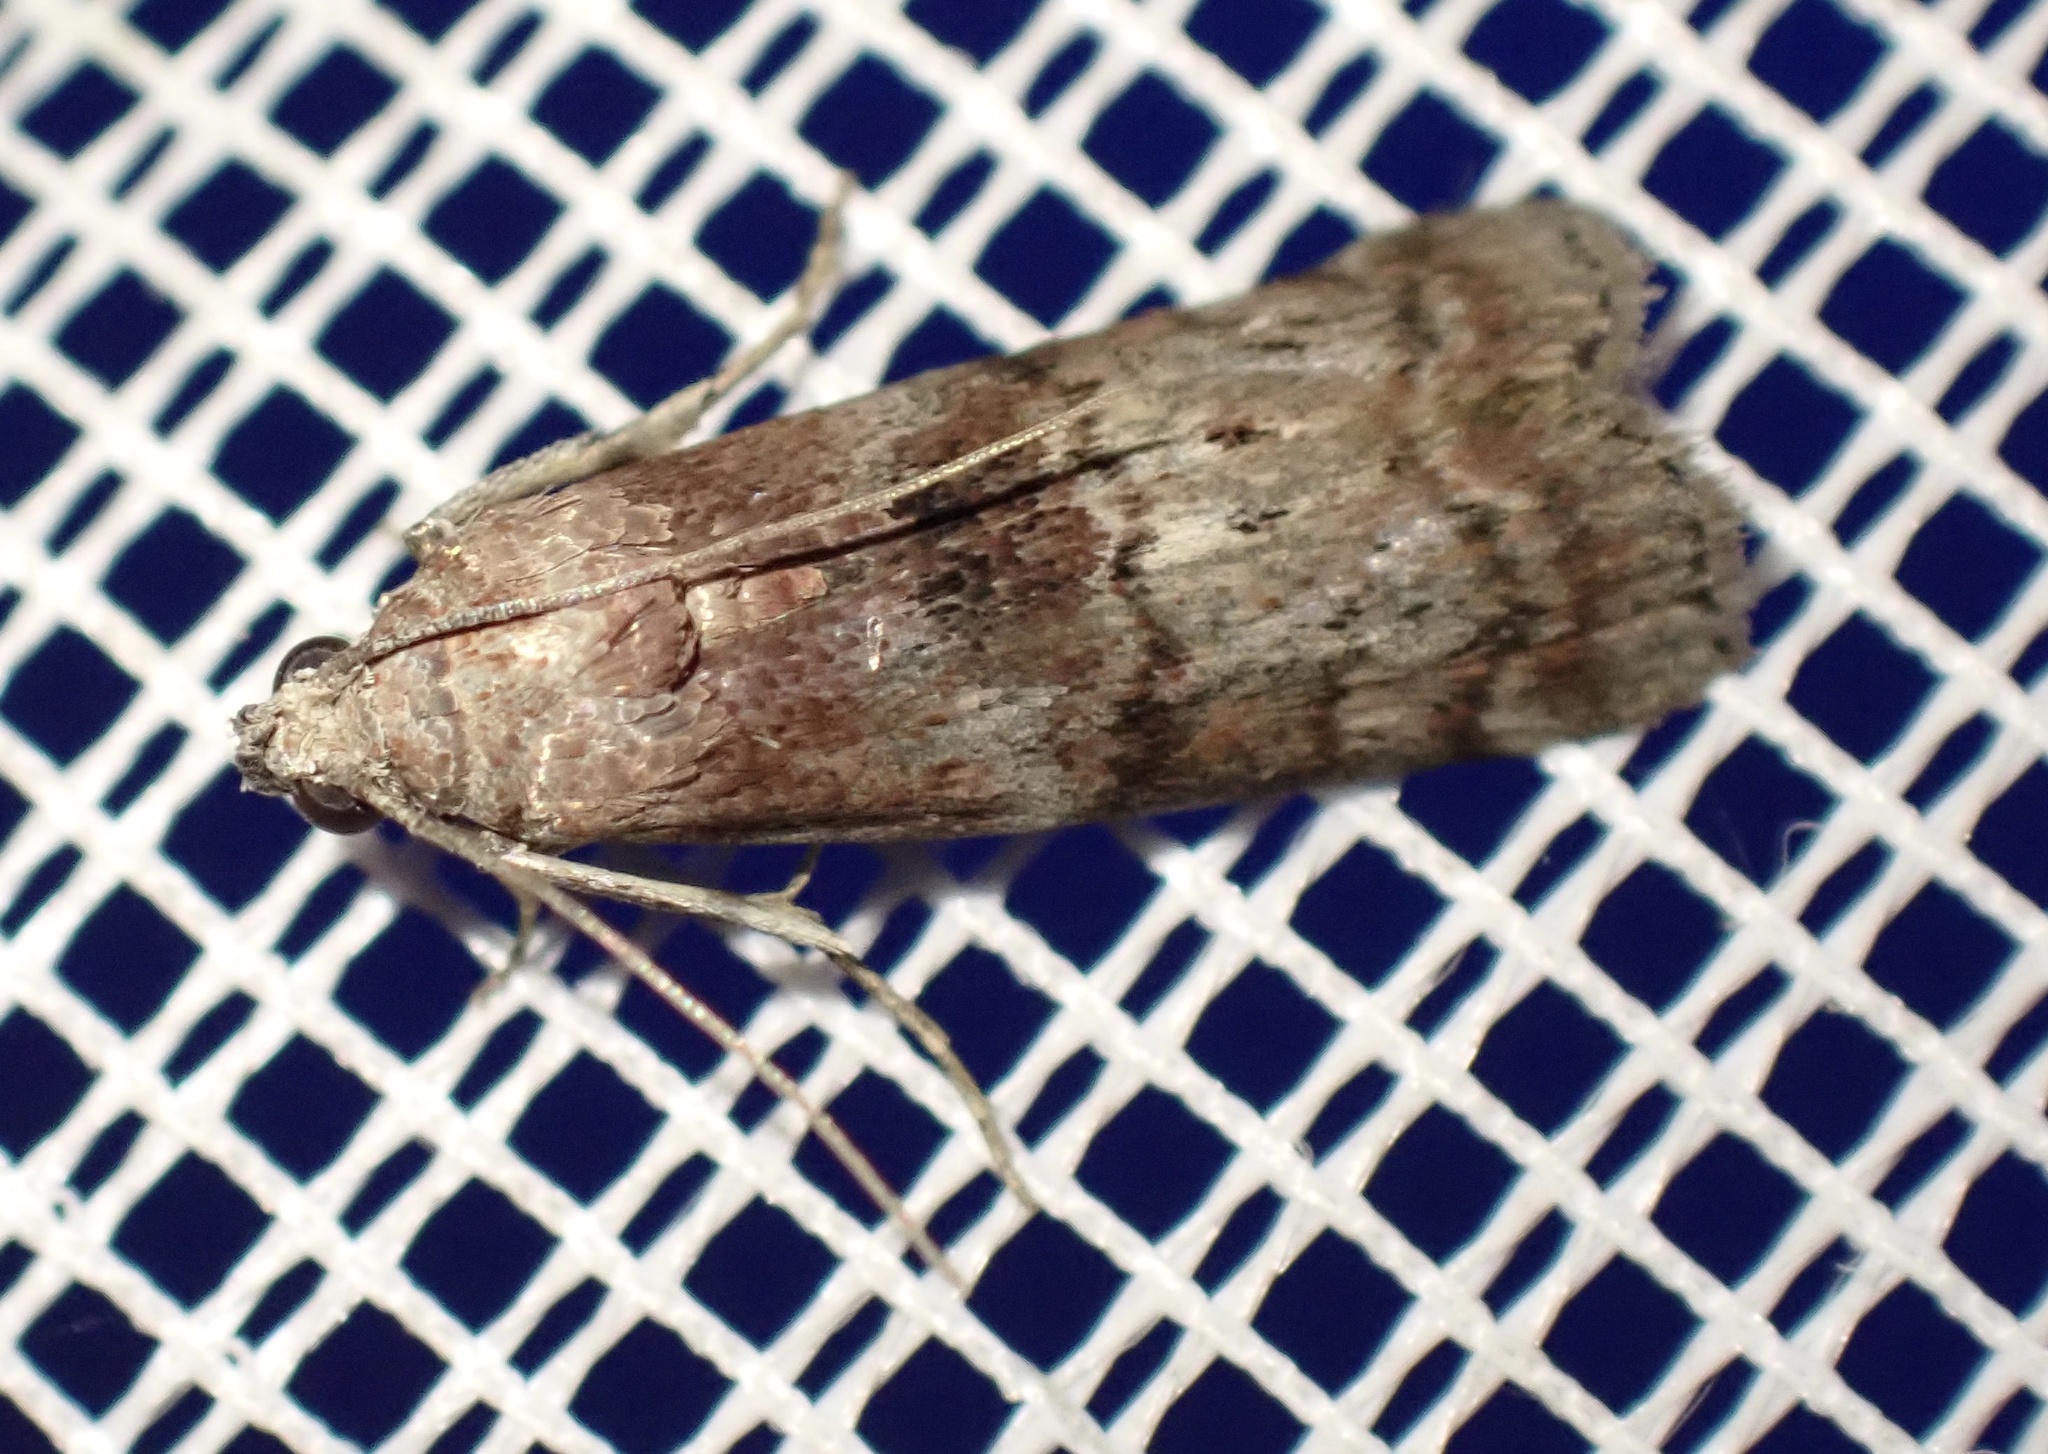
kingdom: Animalia
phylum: Arthropoda
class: Insecta
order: Lepidoptera
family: Pyralidae
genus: Phycita
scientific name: Phycita roborella
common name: Dotted oak knot-horn
